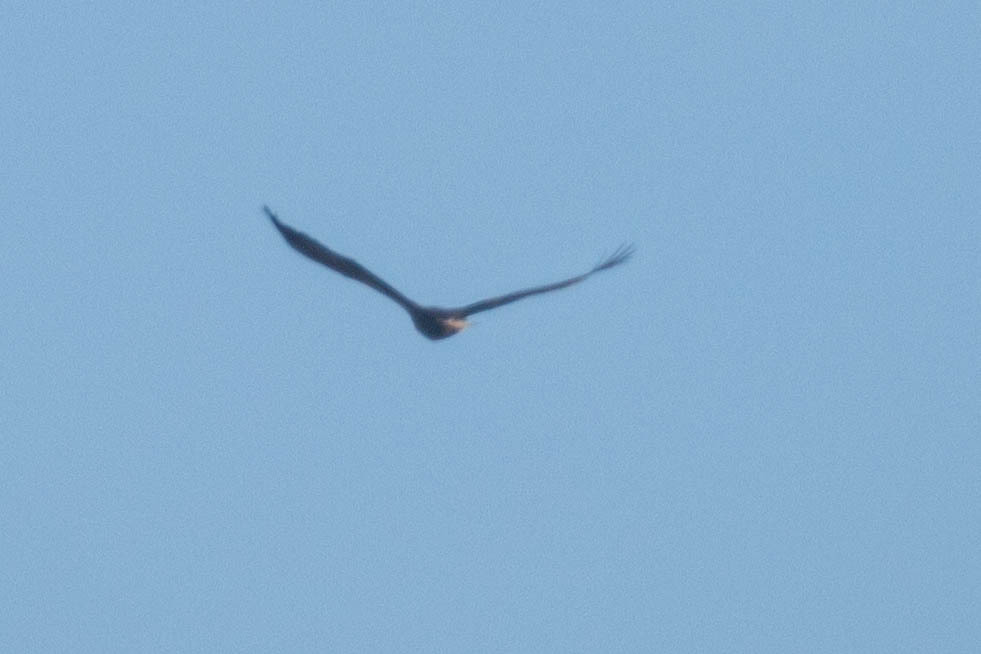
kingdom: Animalia
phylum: Chordata
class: Aves
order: Accipitriformes
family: Accipitridae
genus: Haliaeetus
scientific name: Haliaeetus albicilla
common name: White-tailed eagle
